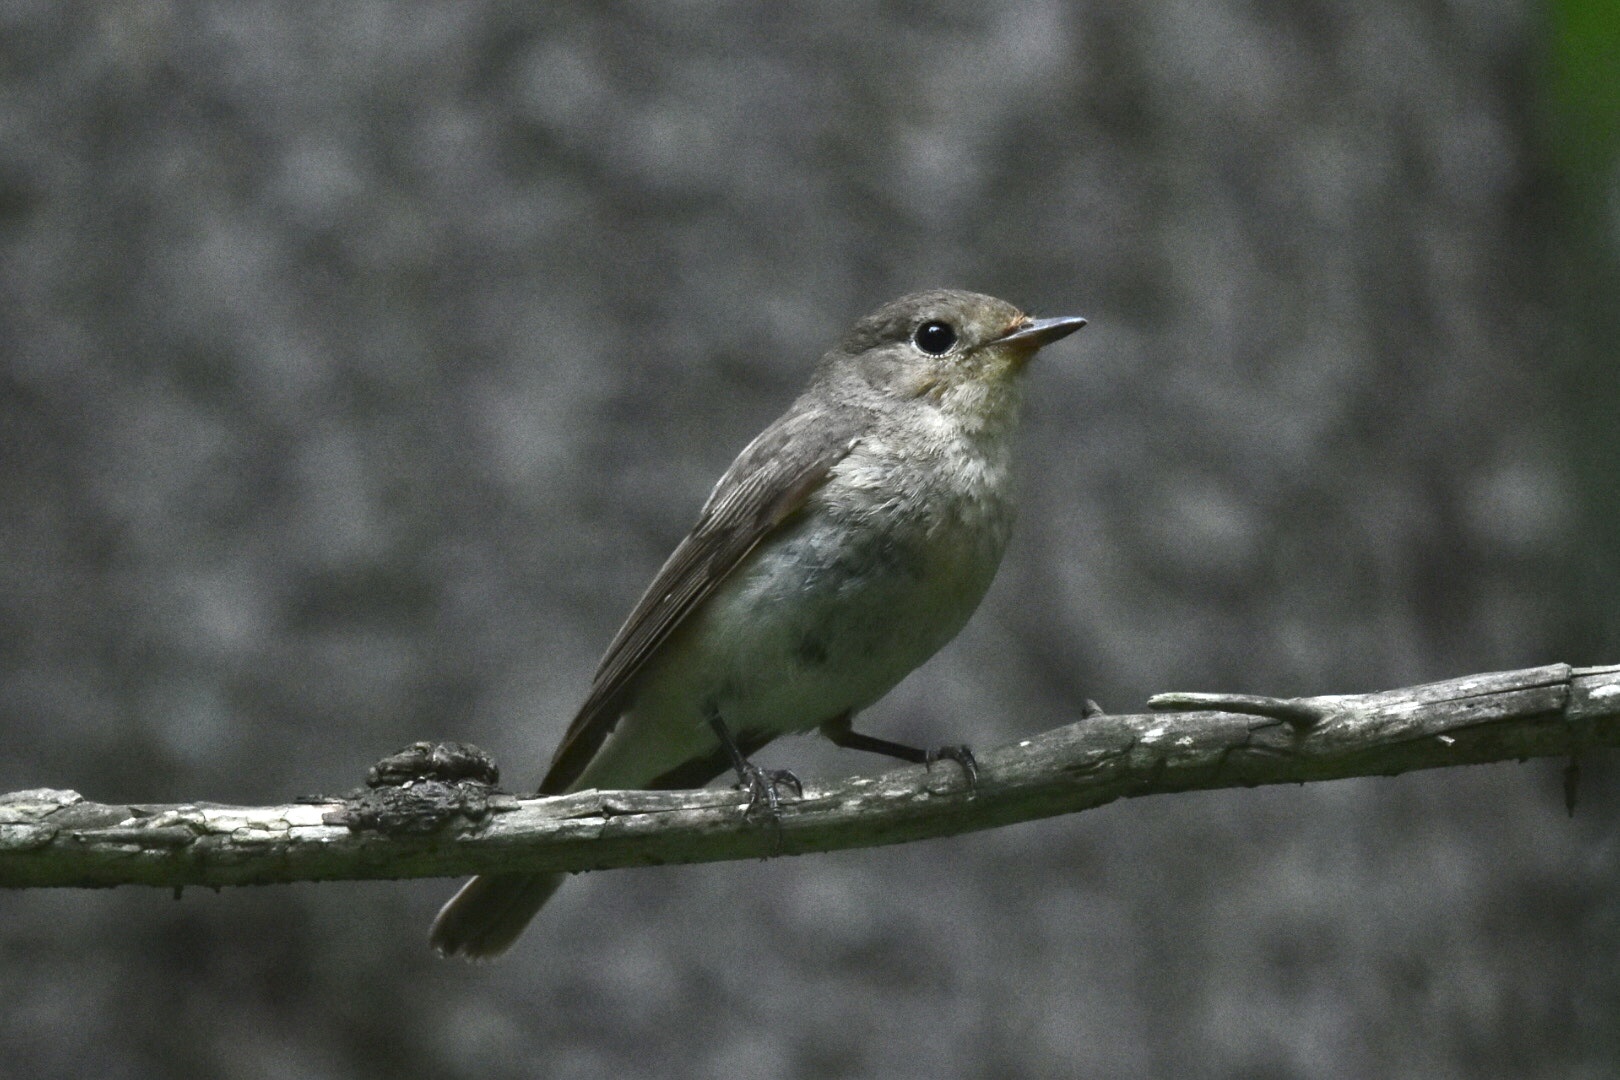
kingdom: Animalia
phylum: Chordata
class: Aves
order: Passeriformes
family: Muscicapidae
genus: Muscicapa
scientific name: Muscicapa striata
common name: Spotted flycatcher
